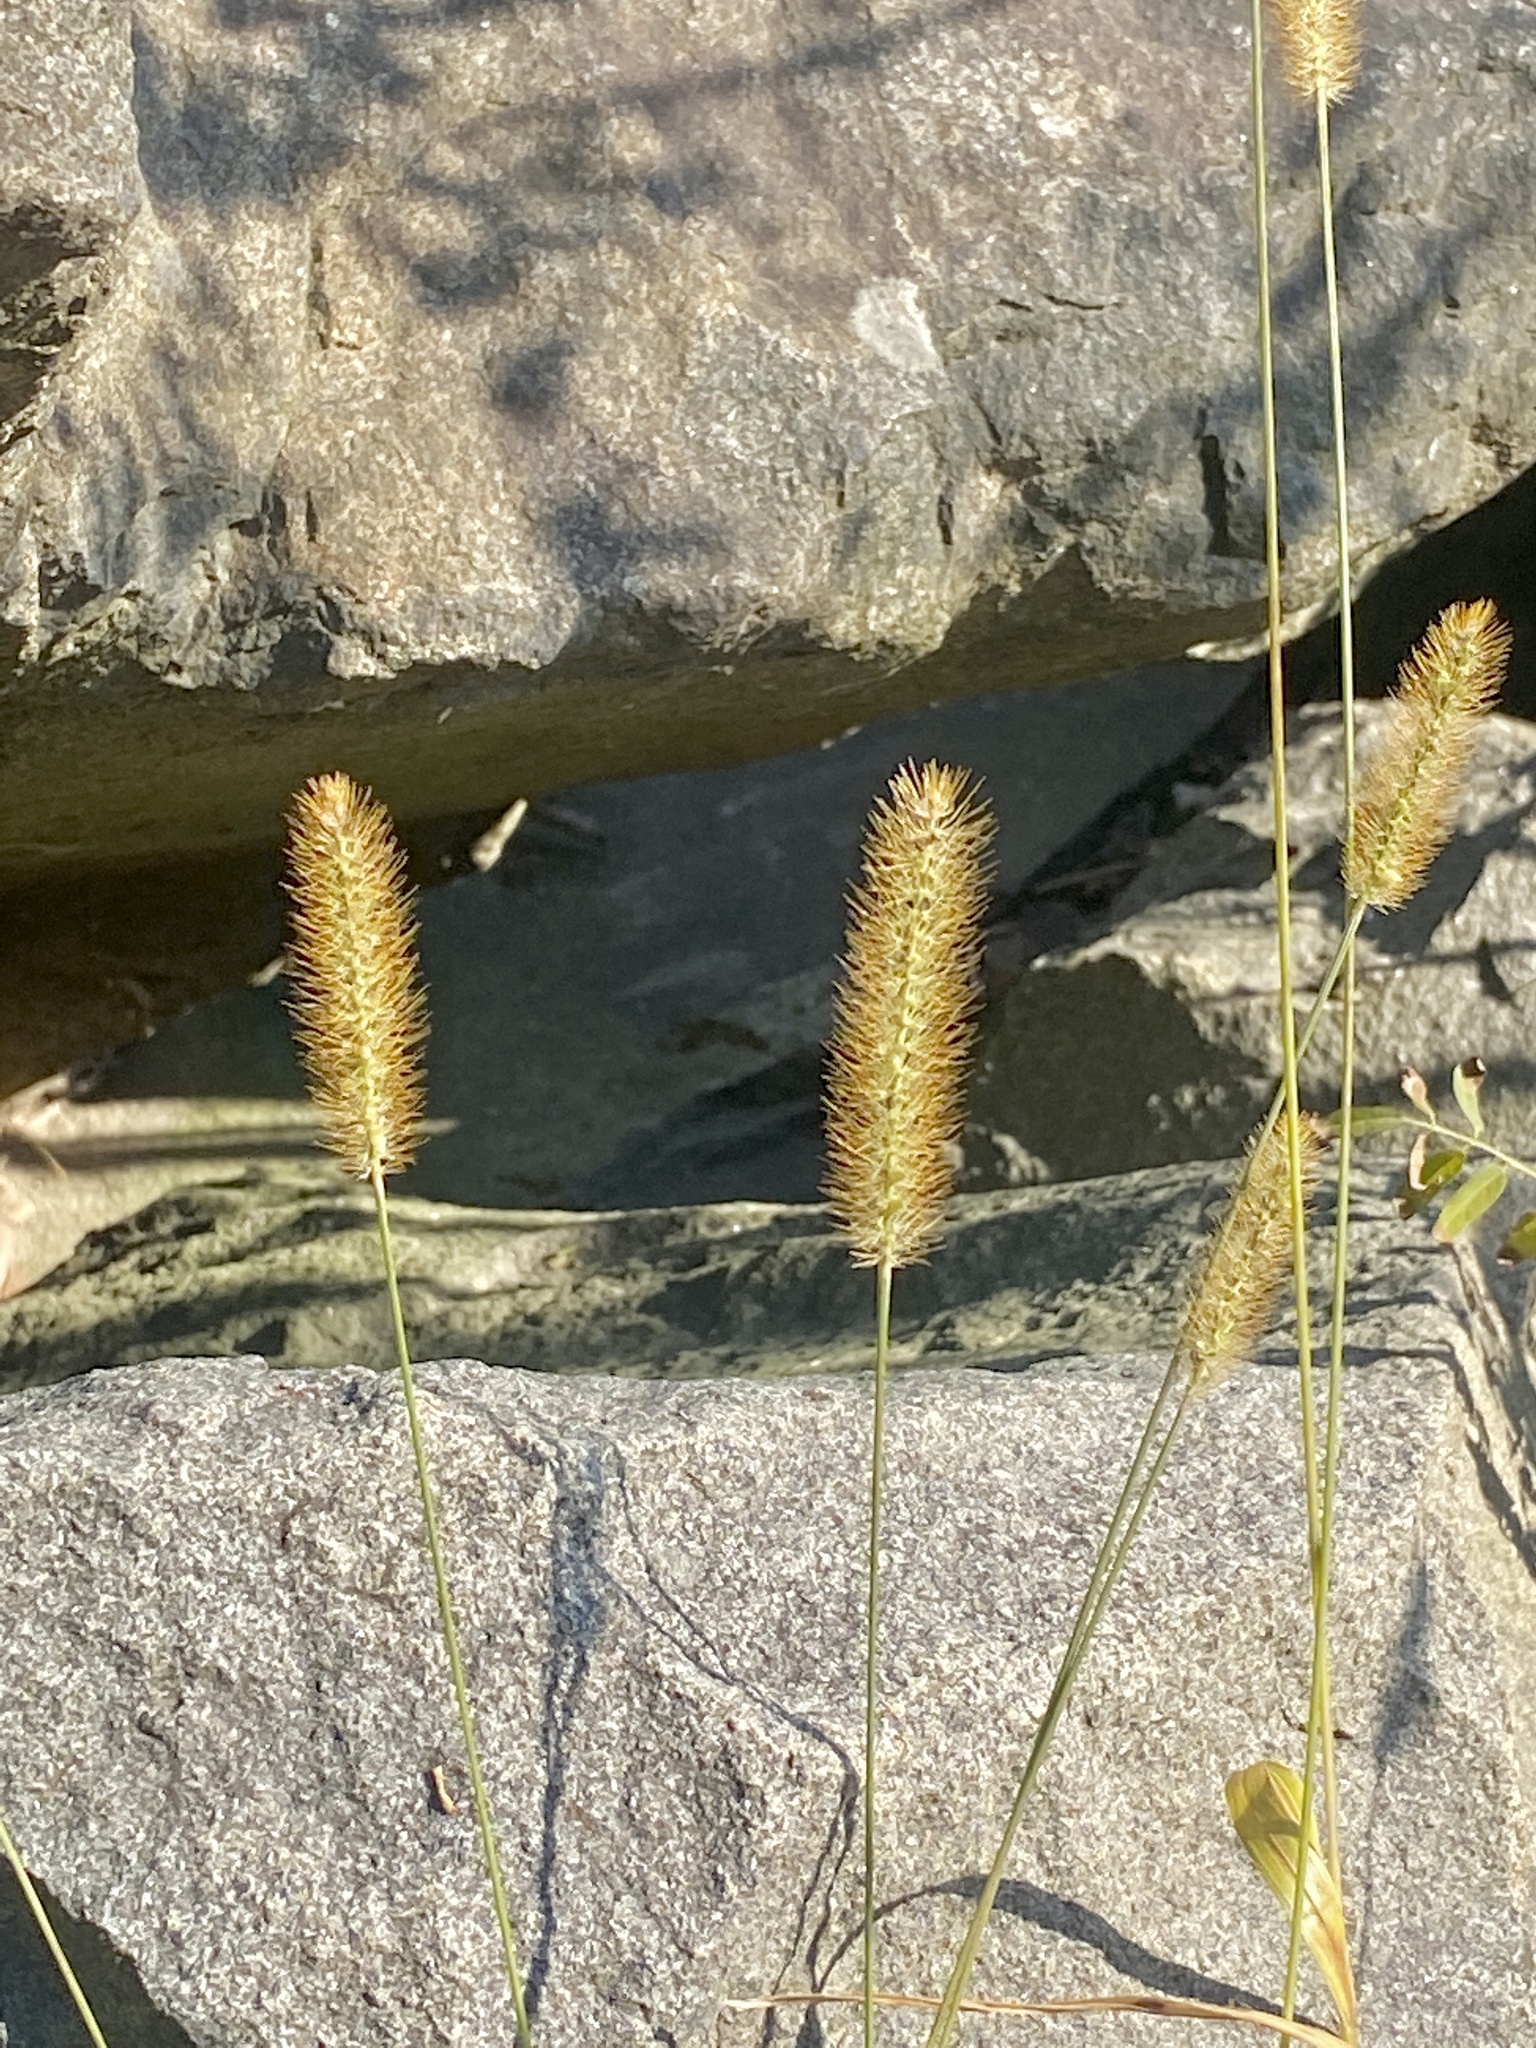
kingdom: Plantae
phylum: Tracheophyta
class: Liliopsida
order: Poales
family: Poaceae
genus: Setaria
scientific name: Setaria pumila
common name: Yellow bristle-grass
